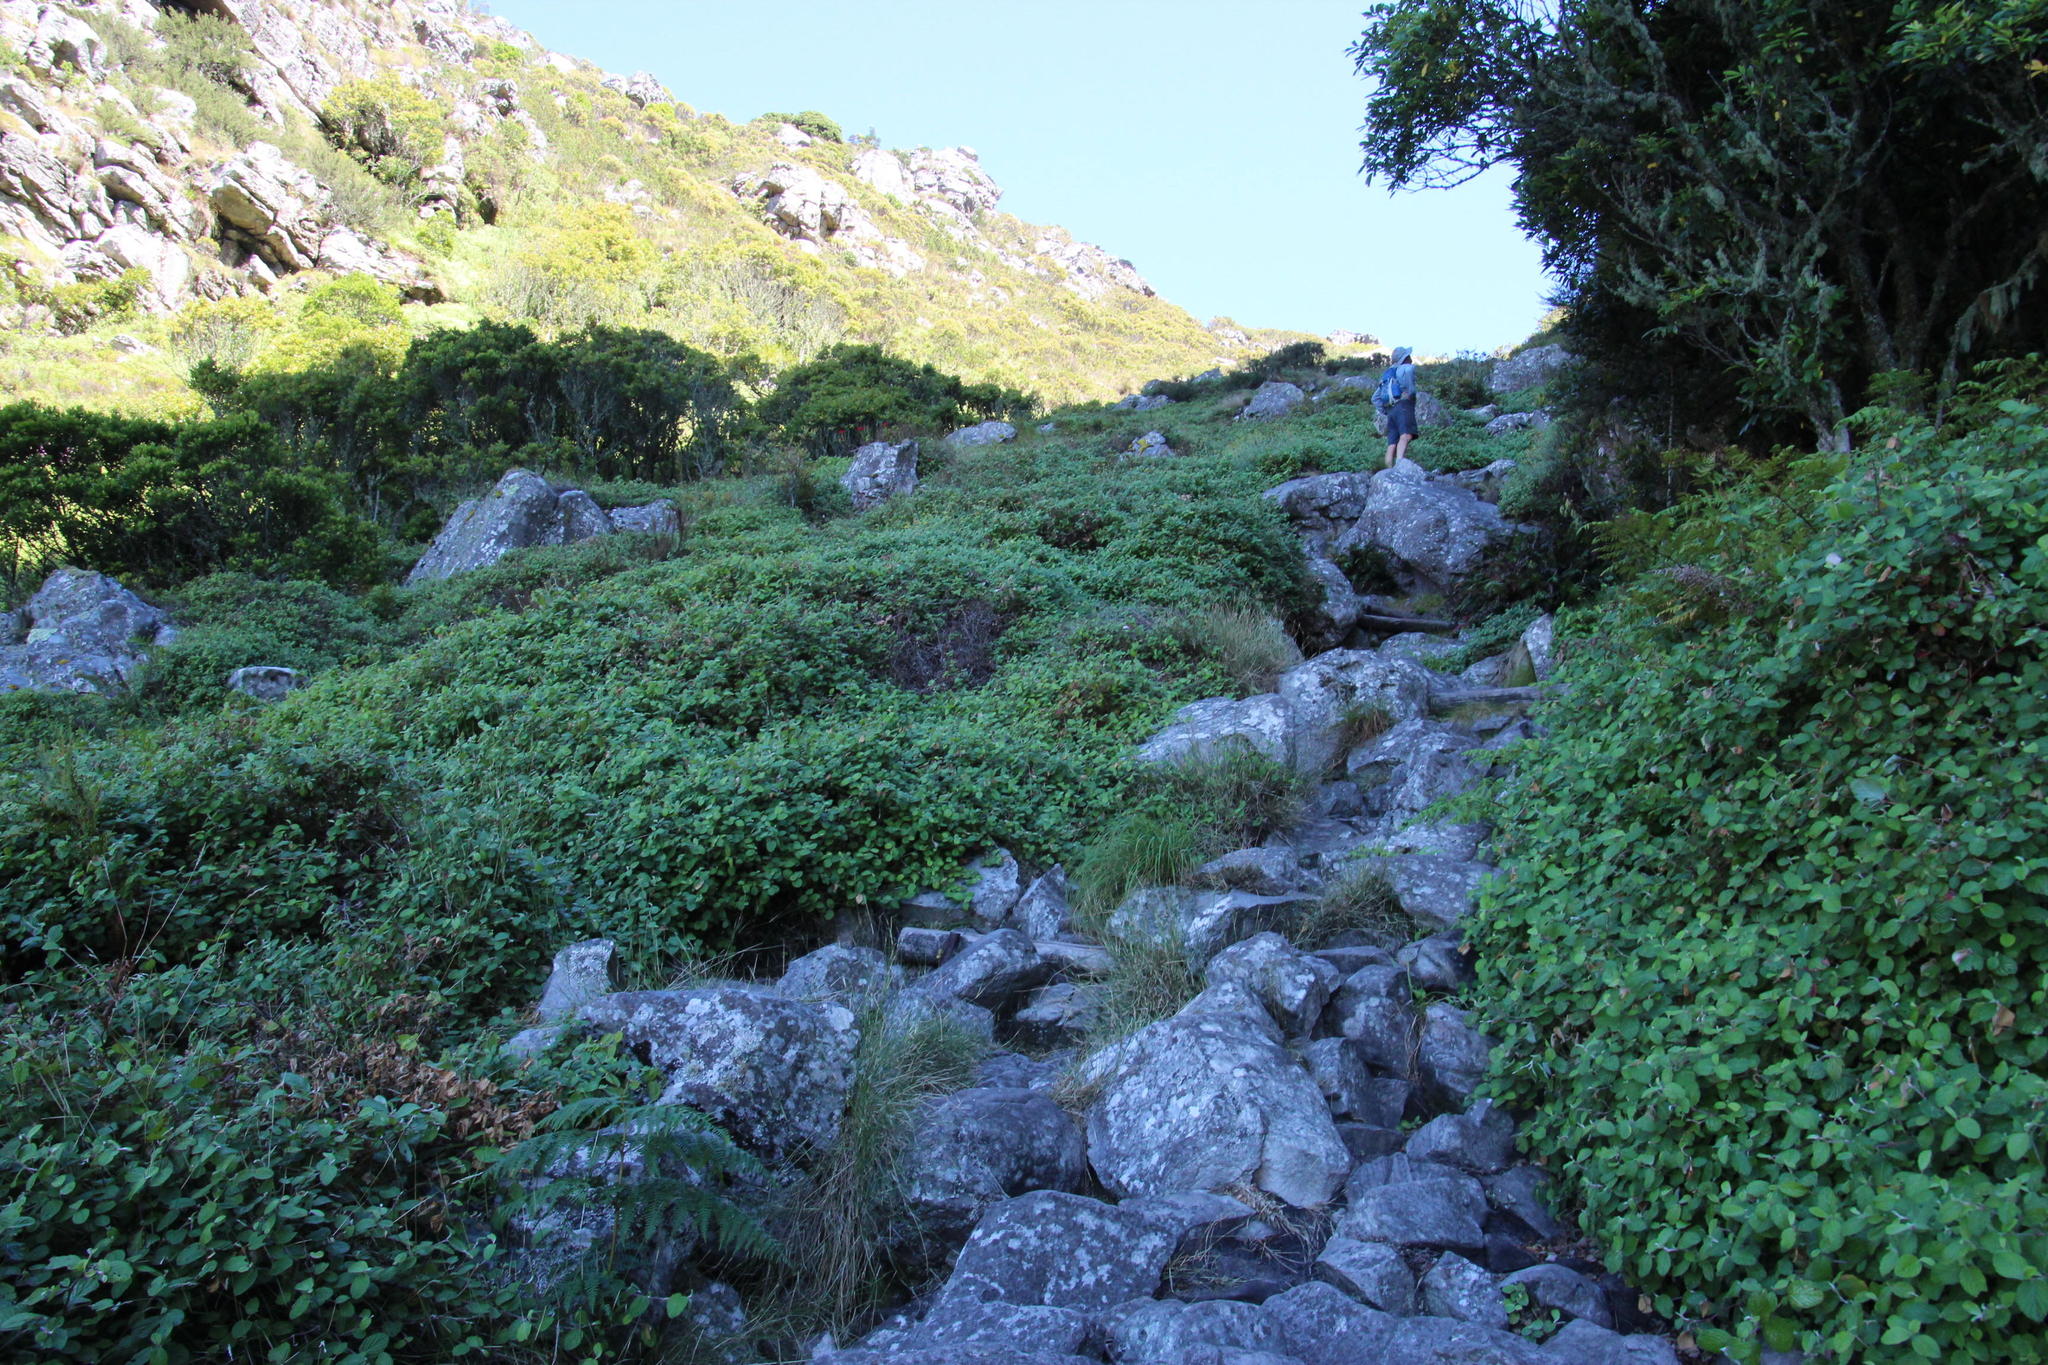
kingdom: Plantae
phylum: Tracheophyta
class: Magnoliopsida
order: Rosales
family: Rosaceae
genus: Cliffortia
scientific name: Cliffortia odorata
